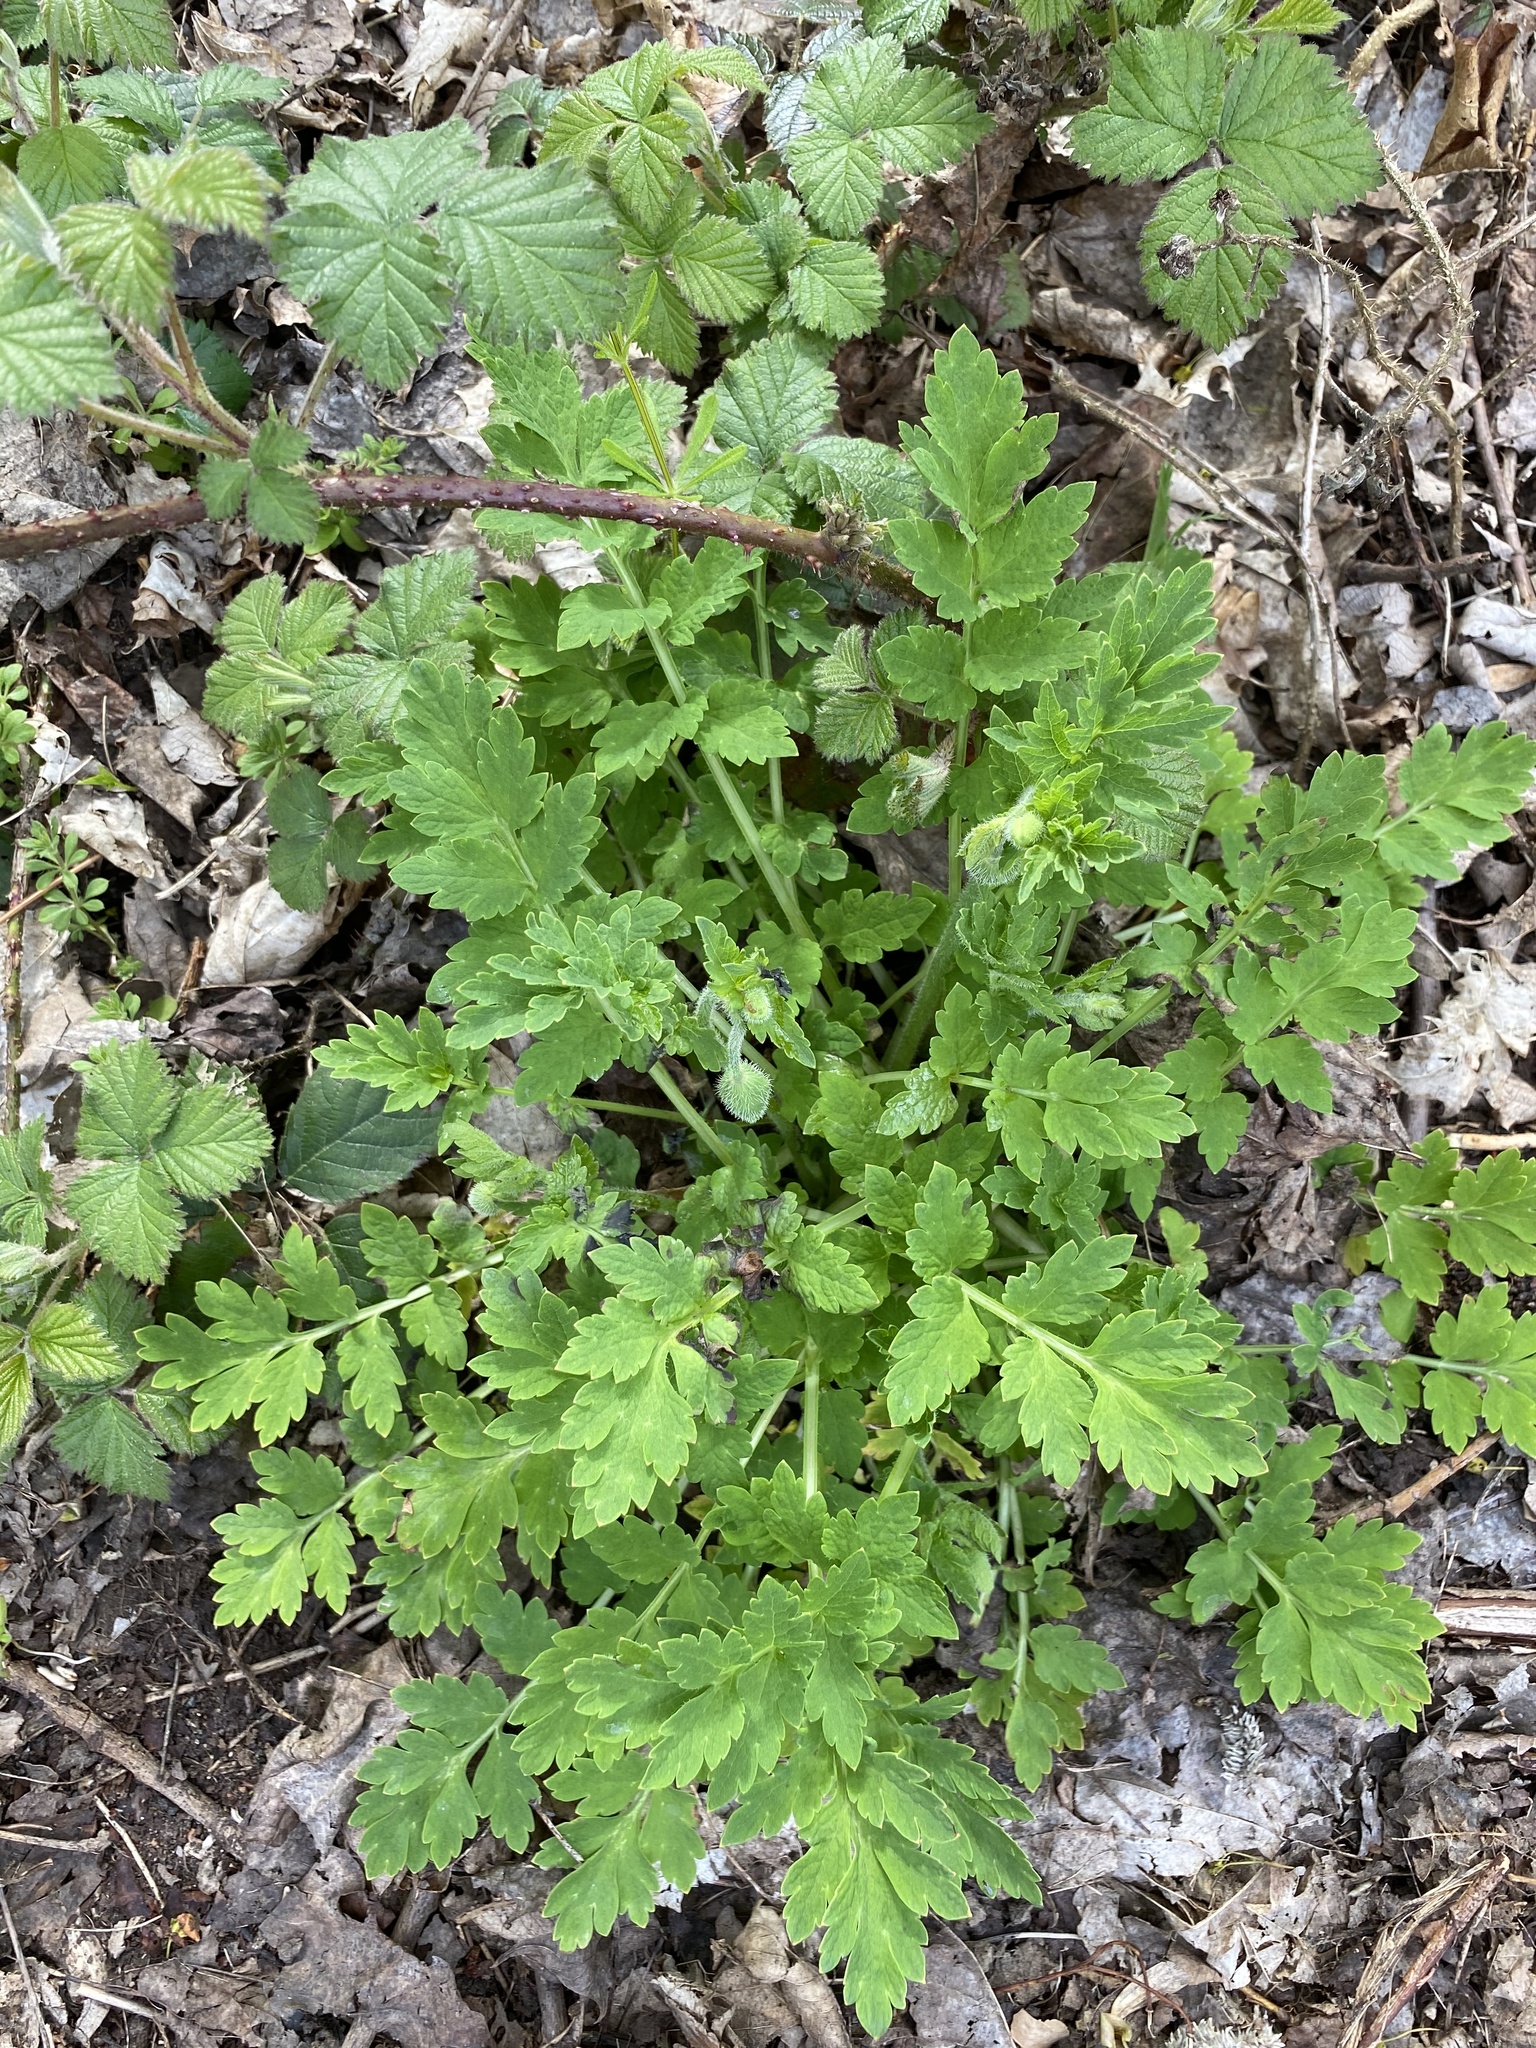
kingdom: Plantae
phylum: Tracheophyta
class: Magnoliopsida
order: Ranunculales
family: Papaveraceae
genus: Papaver
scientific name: Papaver cambricum
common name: Poppy
